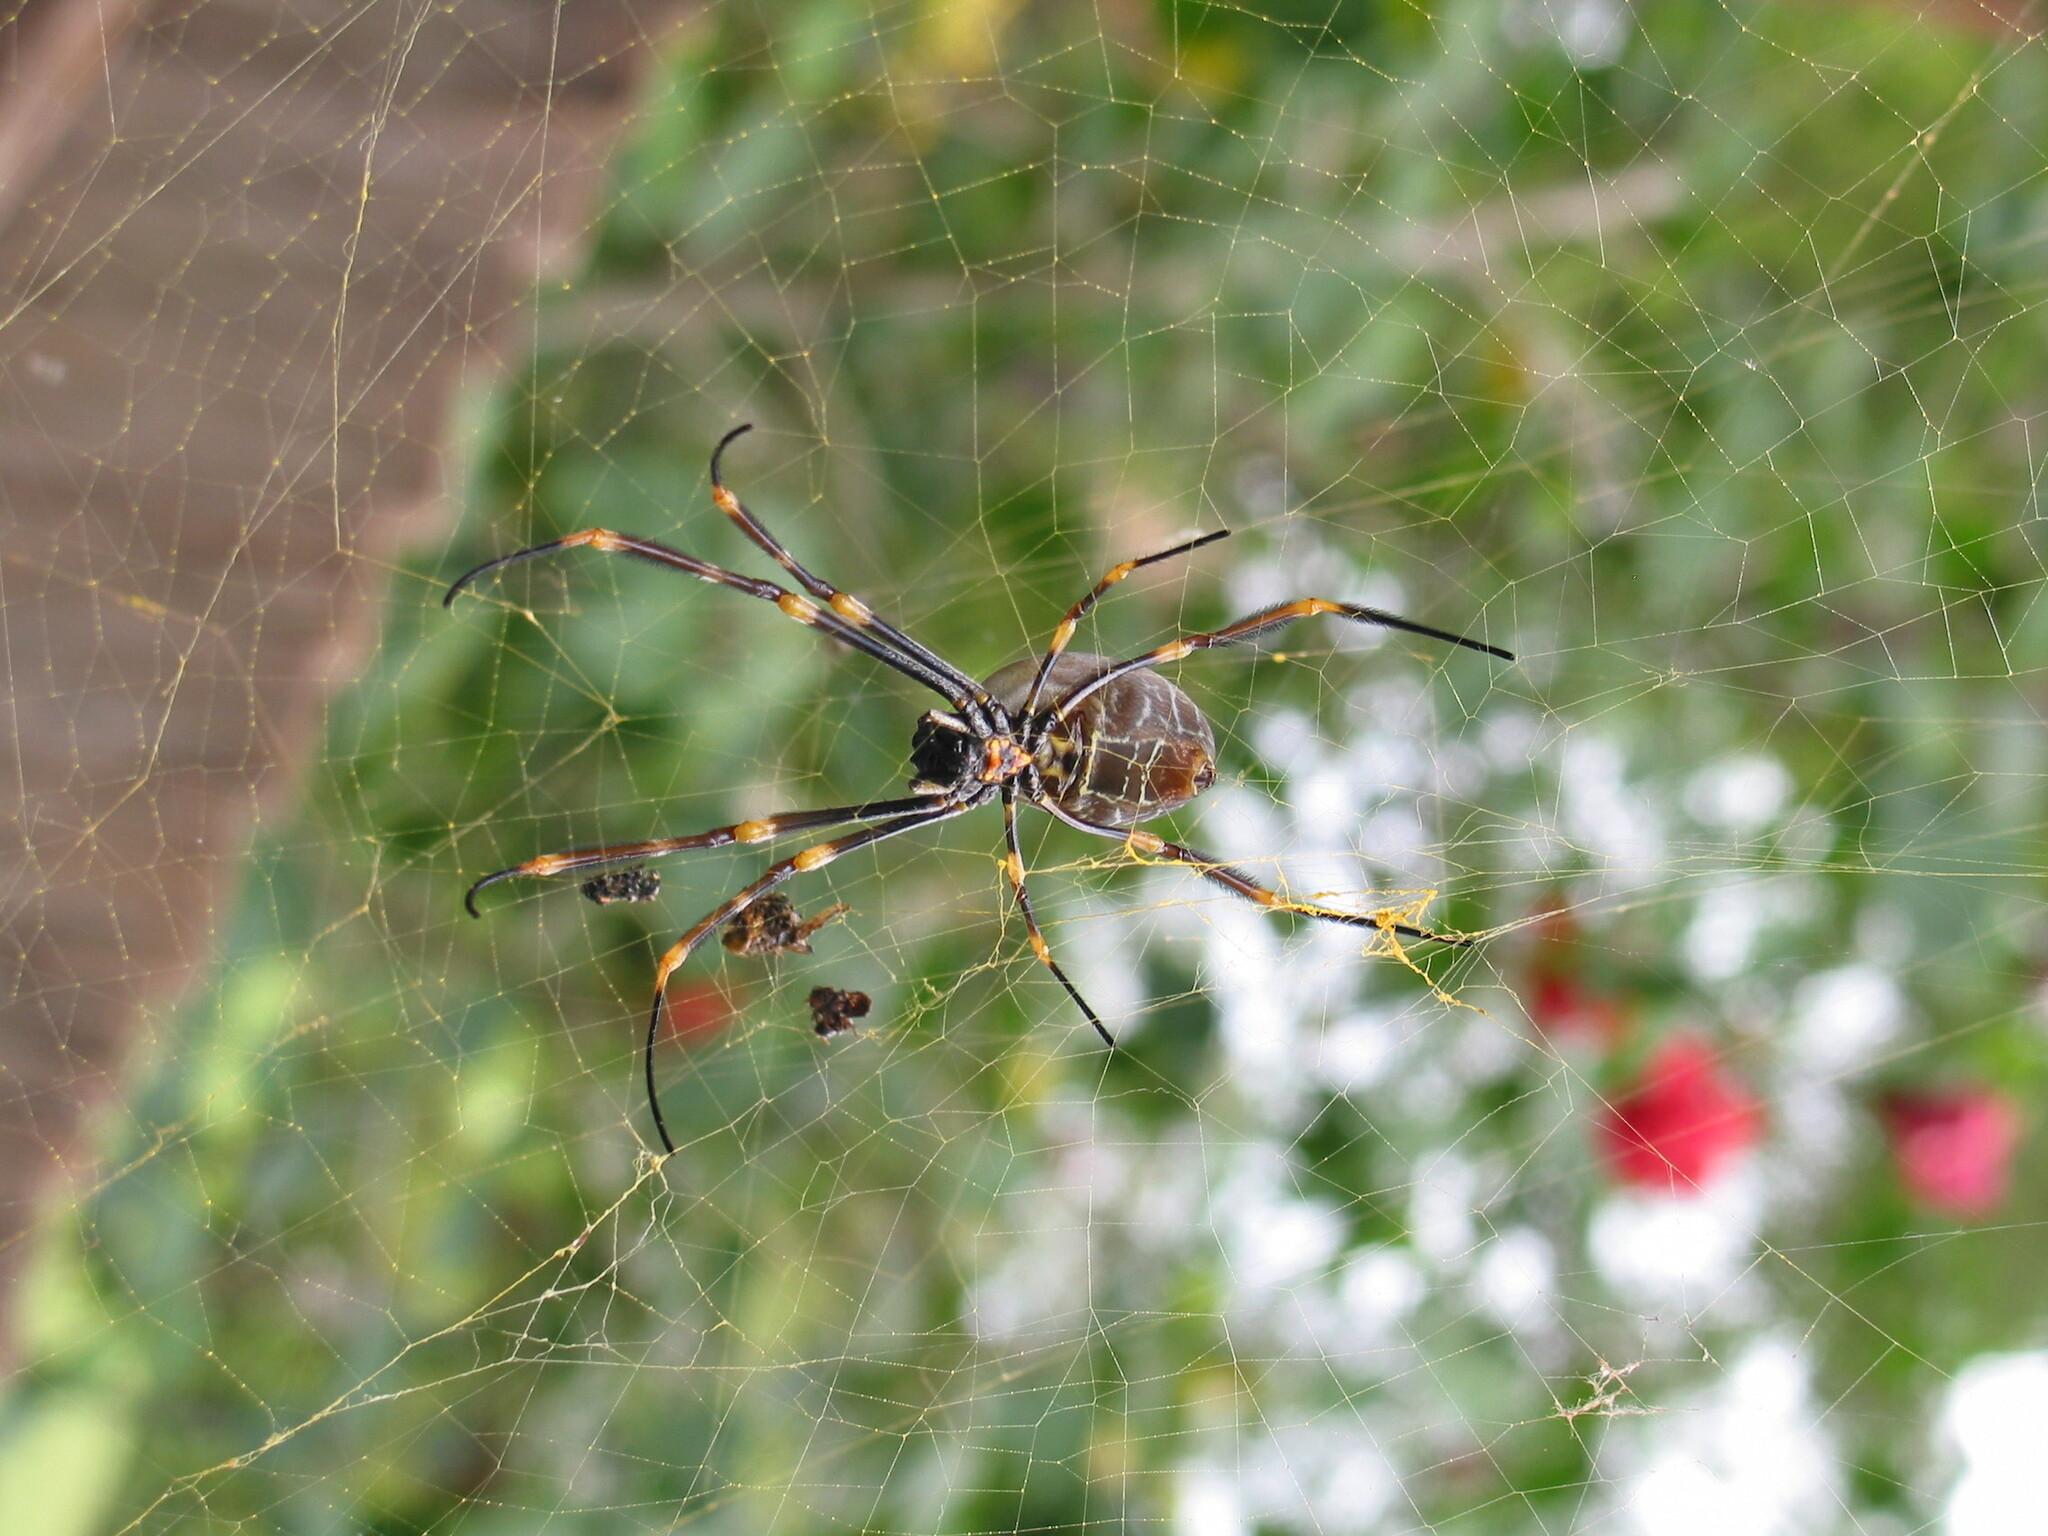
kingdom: Animalia
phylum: Arthropoda
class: Arachnida
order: Araneae
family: Araneidae
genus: Trichonephila
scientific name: Trichonephila plumipes
